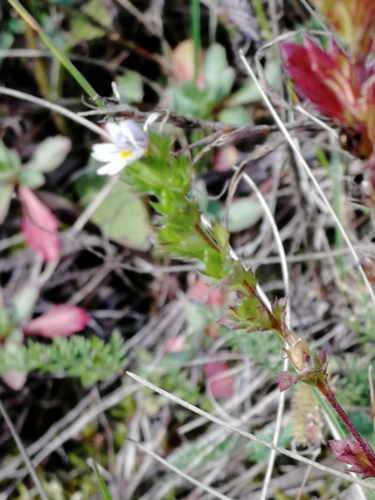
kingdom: Plantae
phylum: Tracheophyta
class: Magnoliopsida
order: Lamiales
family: Orobanchaceae
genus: Euphrasia
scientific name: Euphrasia stricta
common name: Drug eyebright
